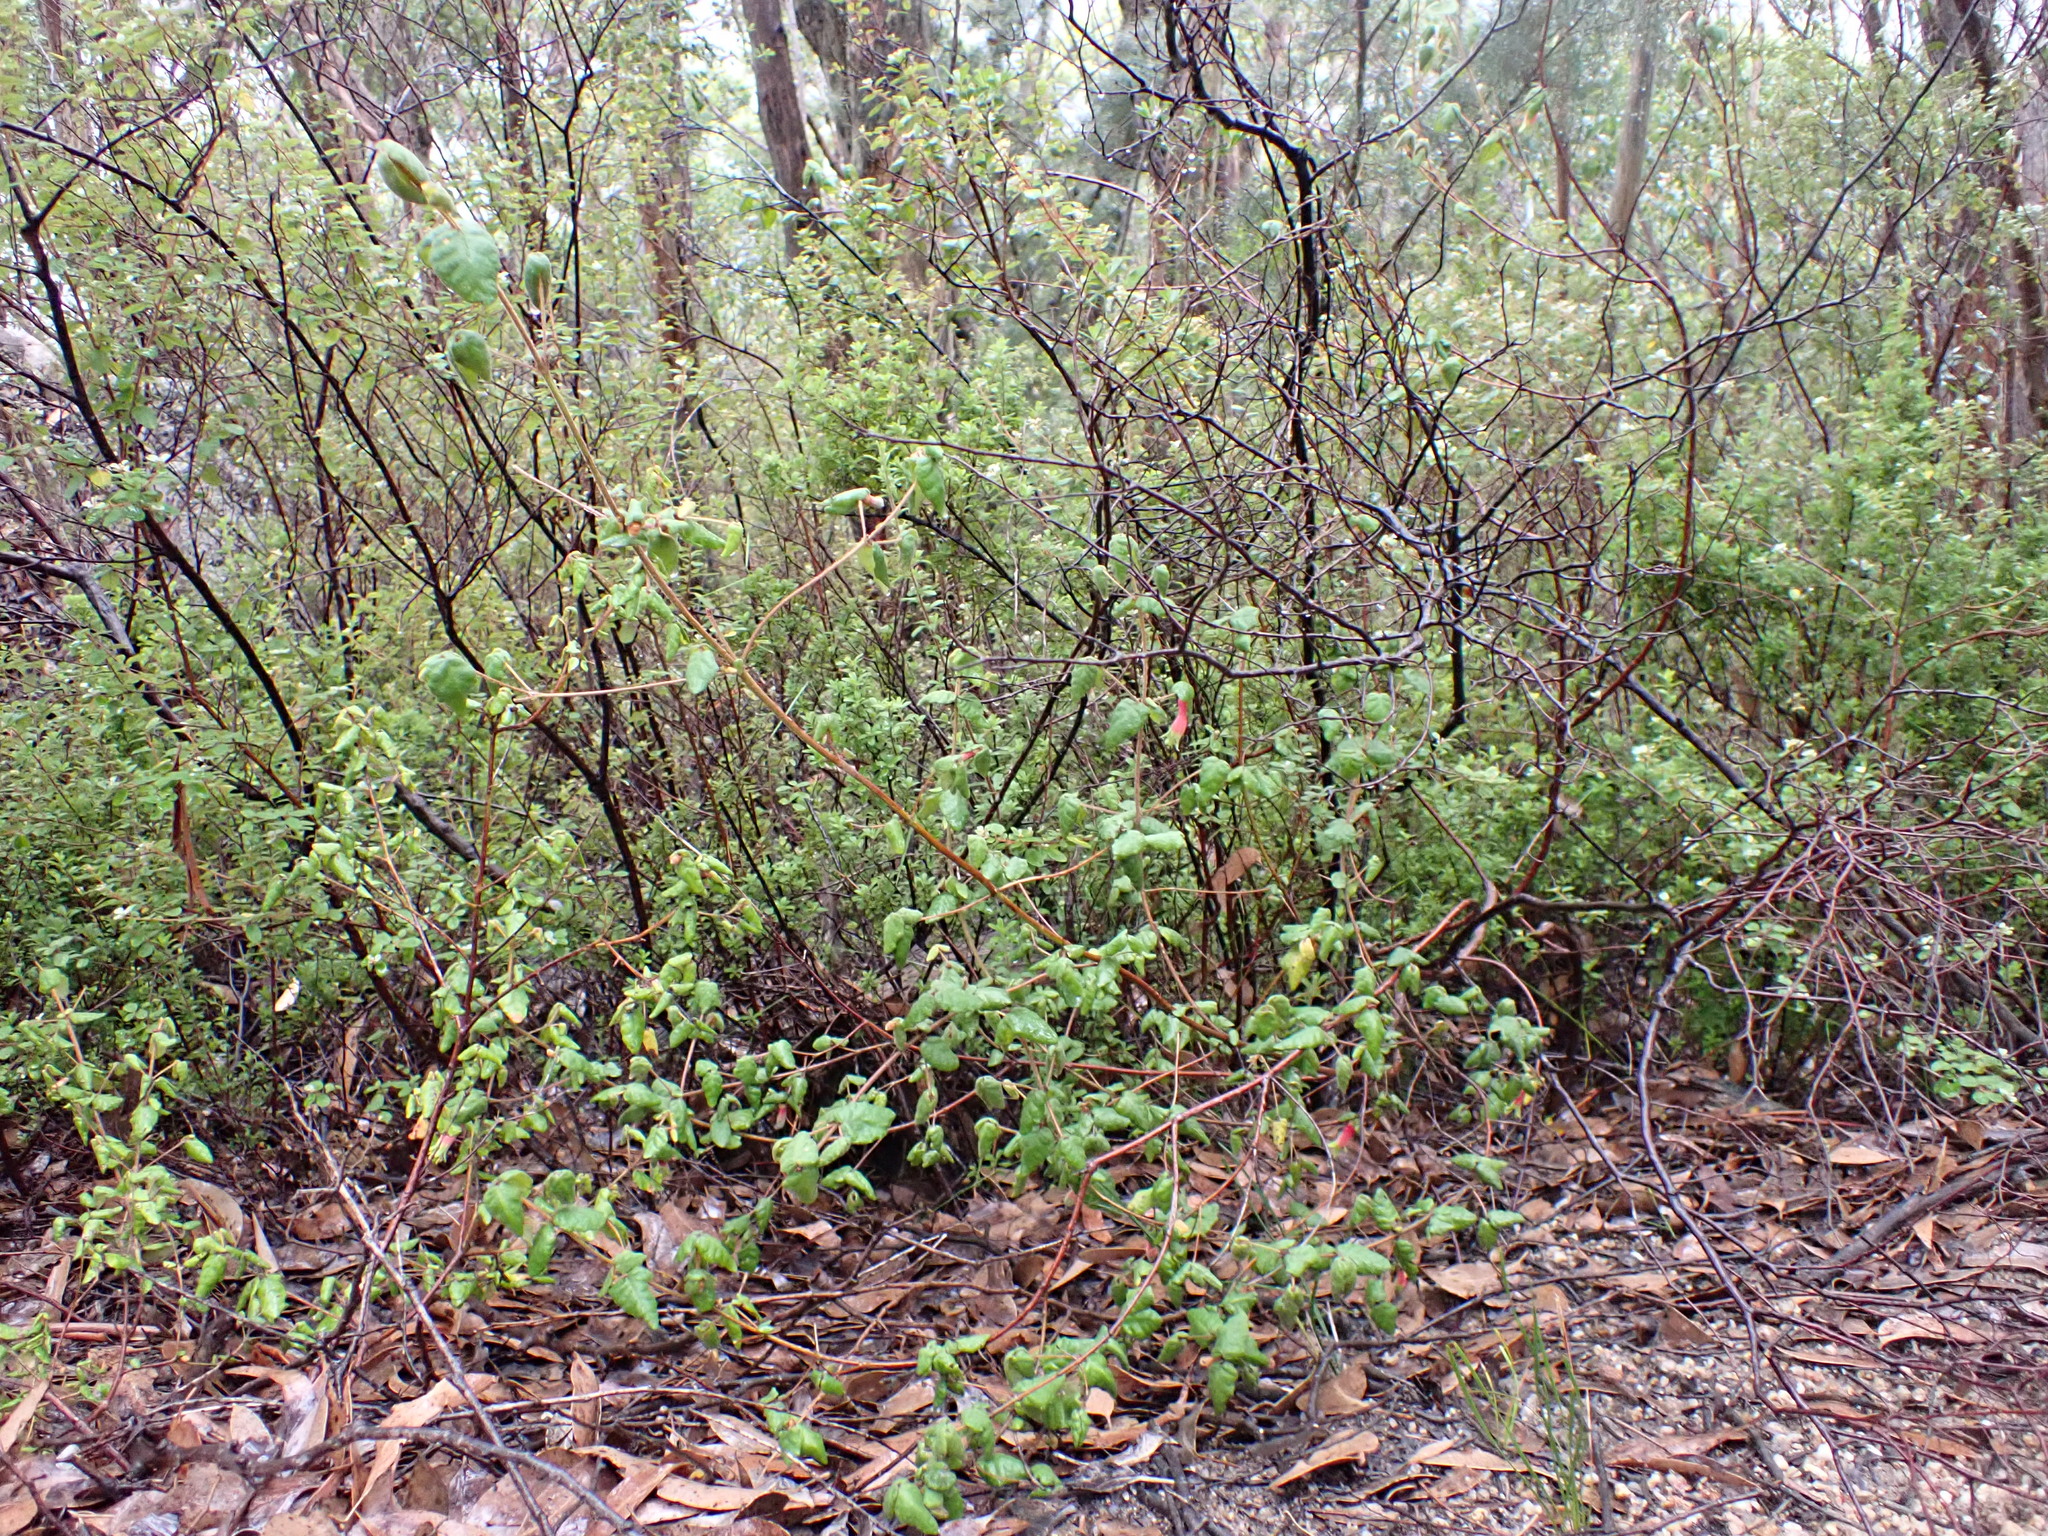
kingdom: Plantae
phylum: Tracheophyta
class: Magnoliopsida
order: Sapindales
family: Rutaceae
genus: Correa
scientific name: Correa reflexa
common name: Common correa
